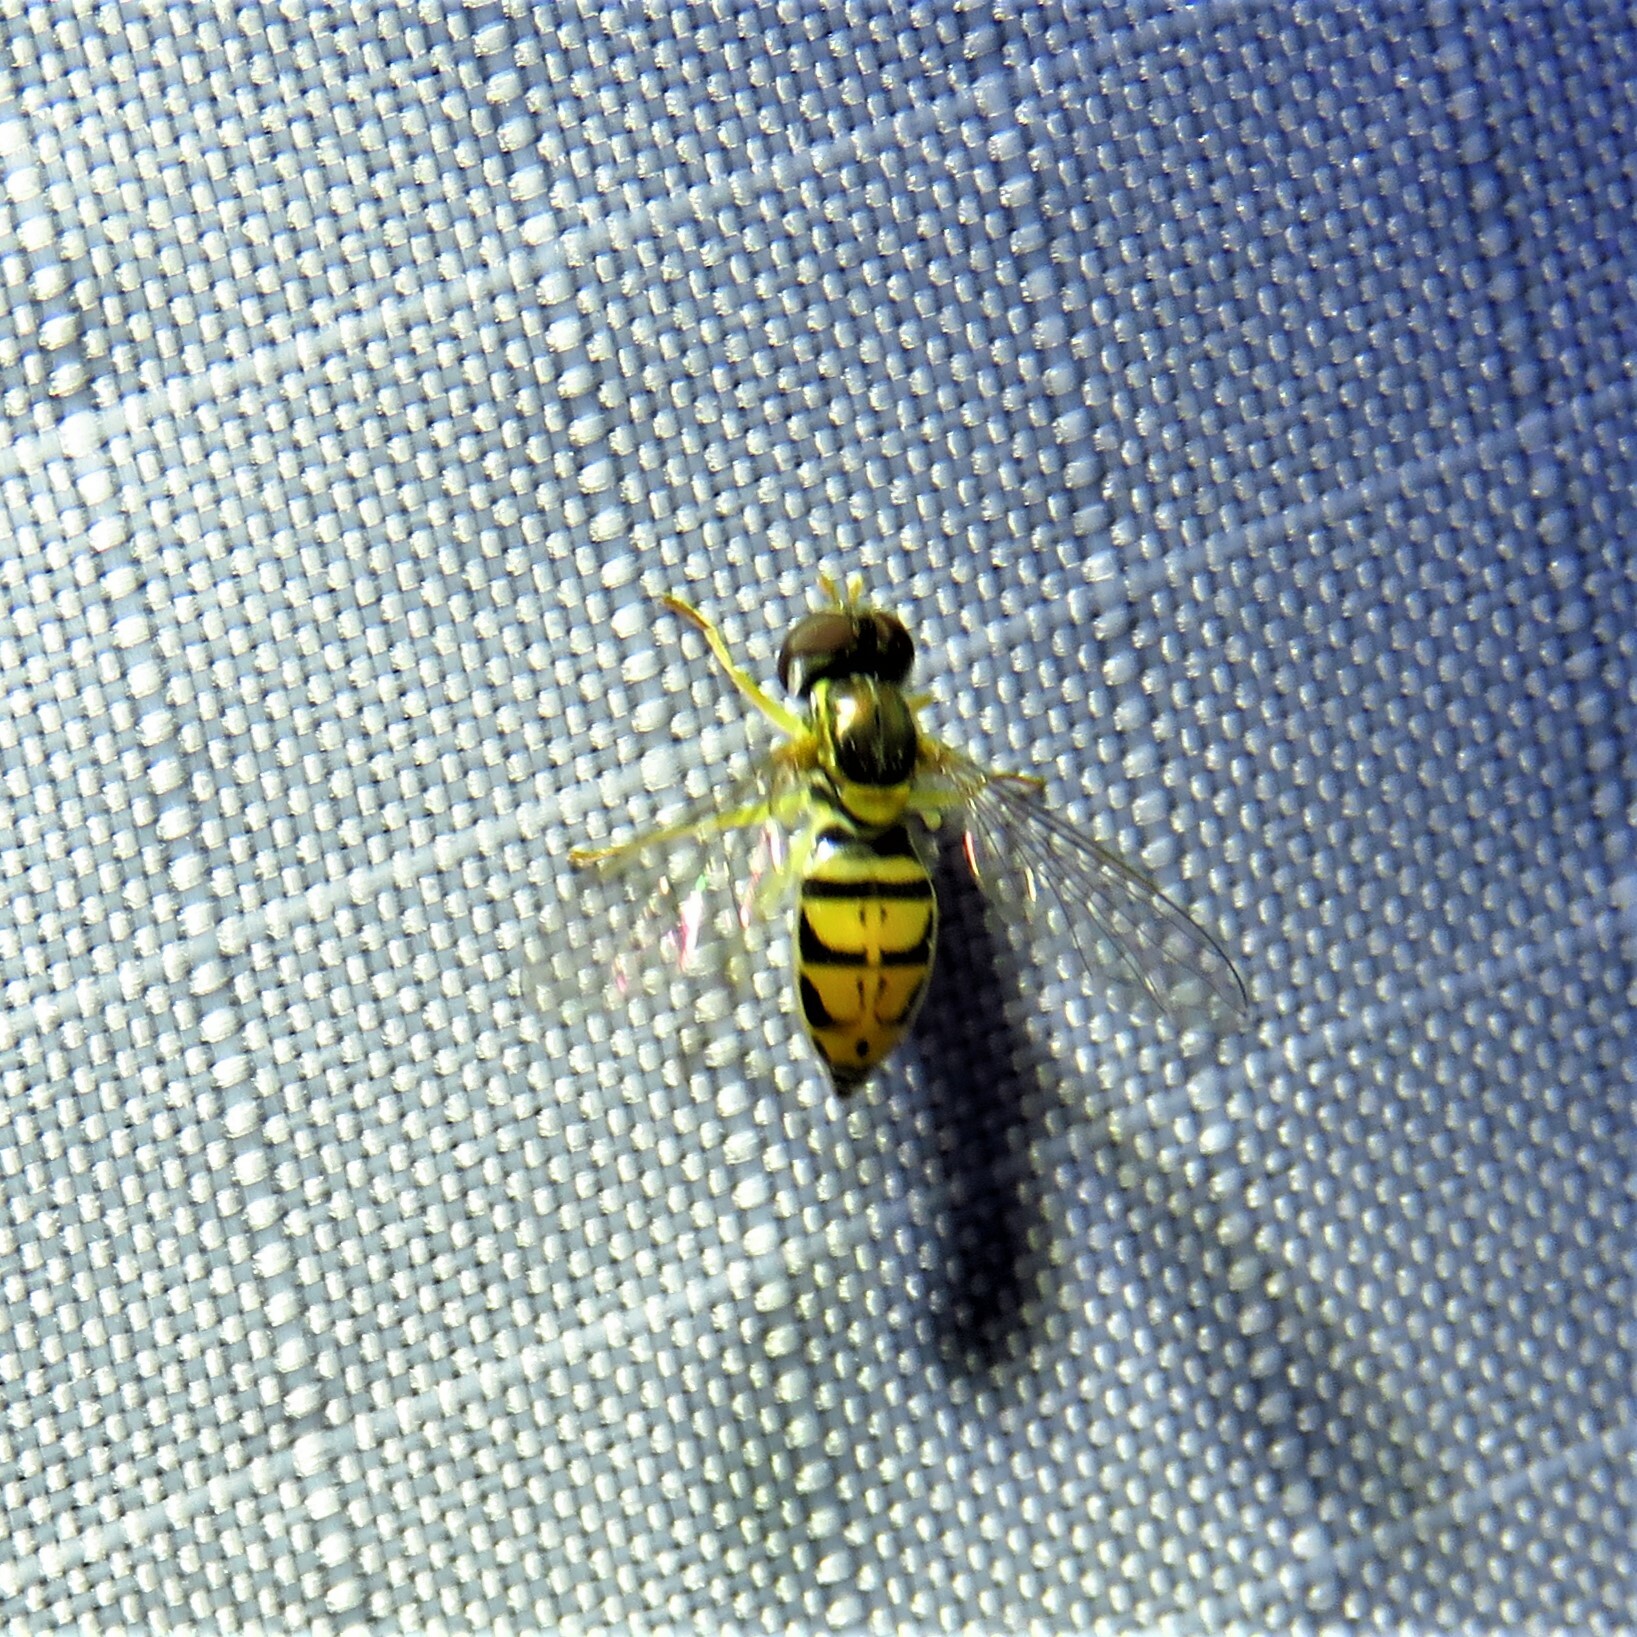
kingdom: Animalia
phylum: Arthropoda
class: Insecta
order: Diptera
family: Syrphidae
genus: Toxomerus
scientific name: Toxomerus marginatus
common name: Syrphid fly
